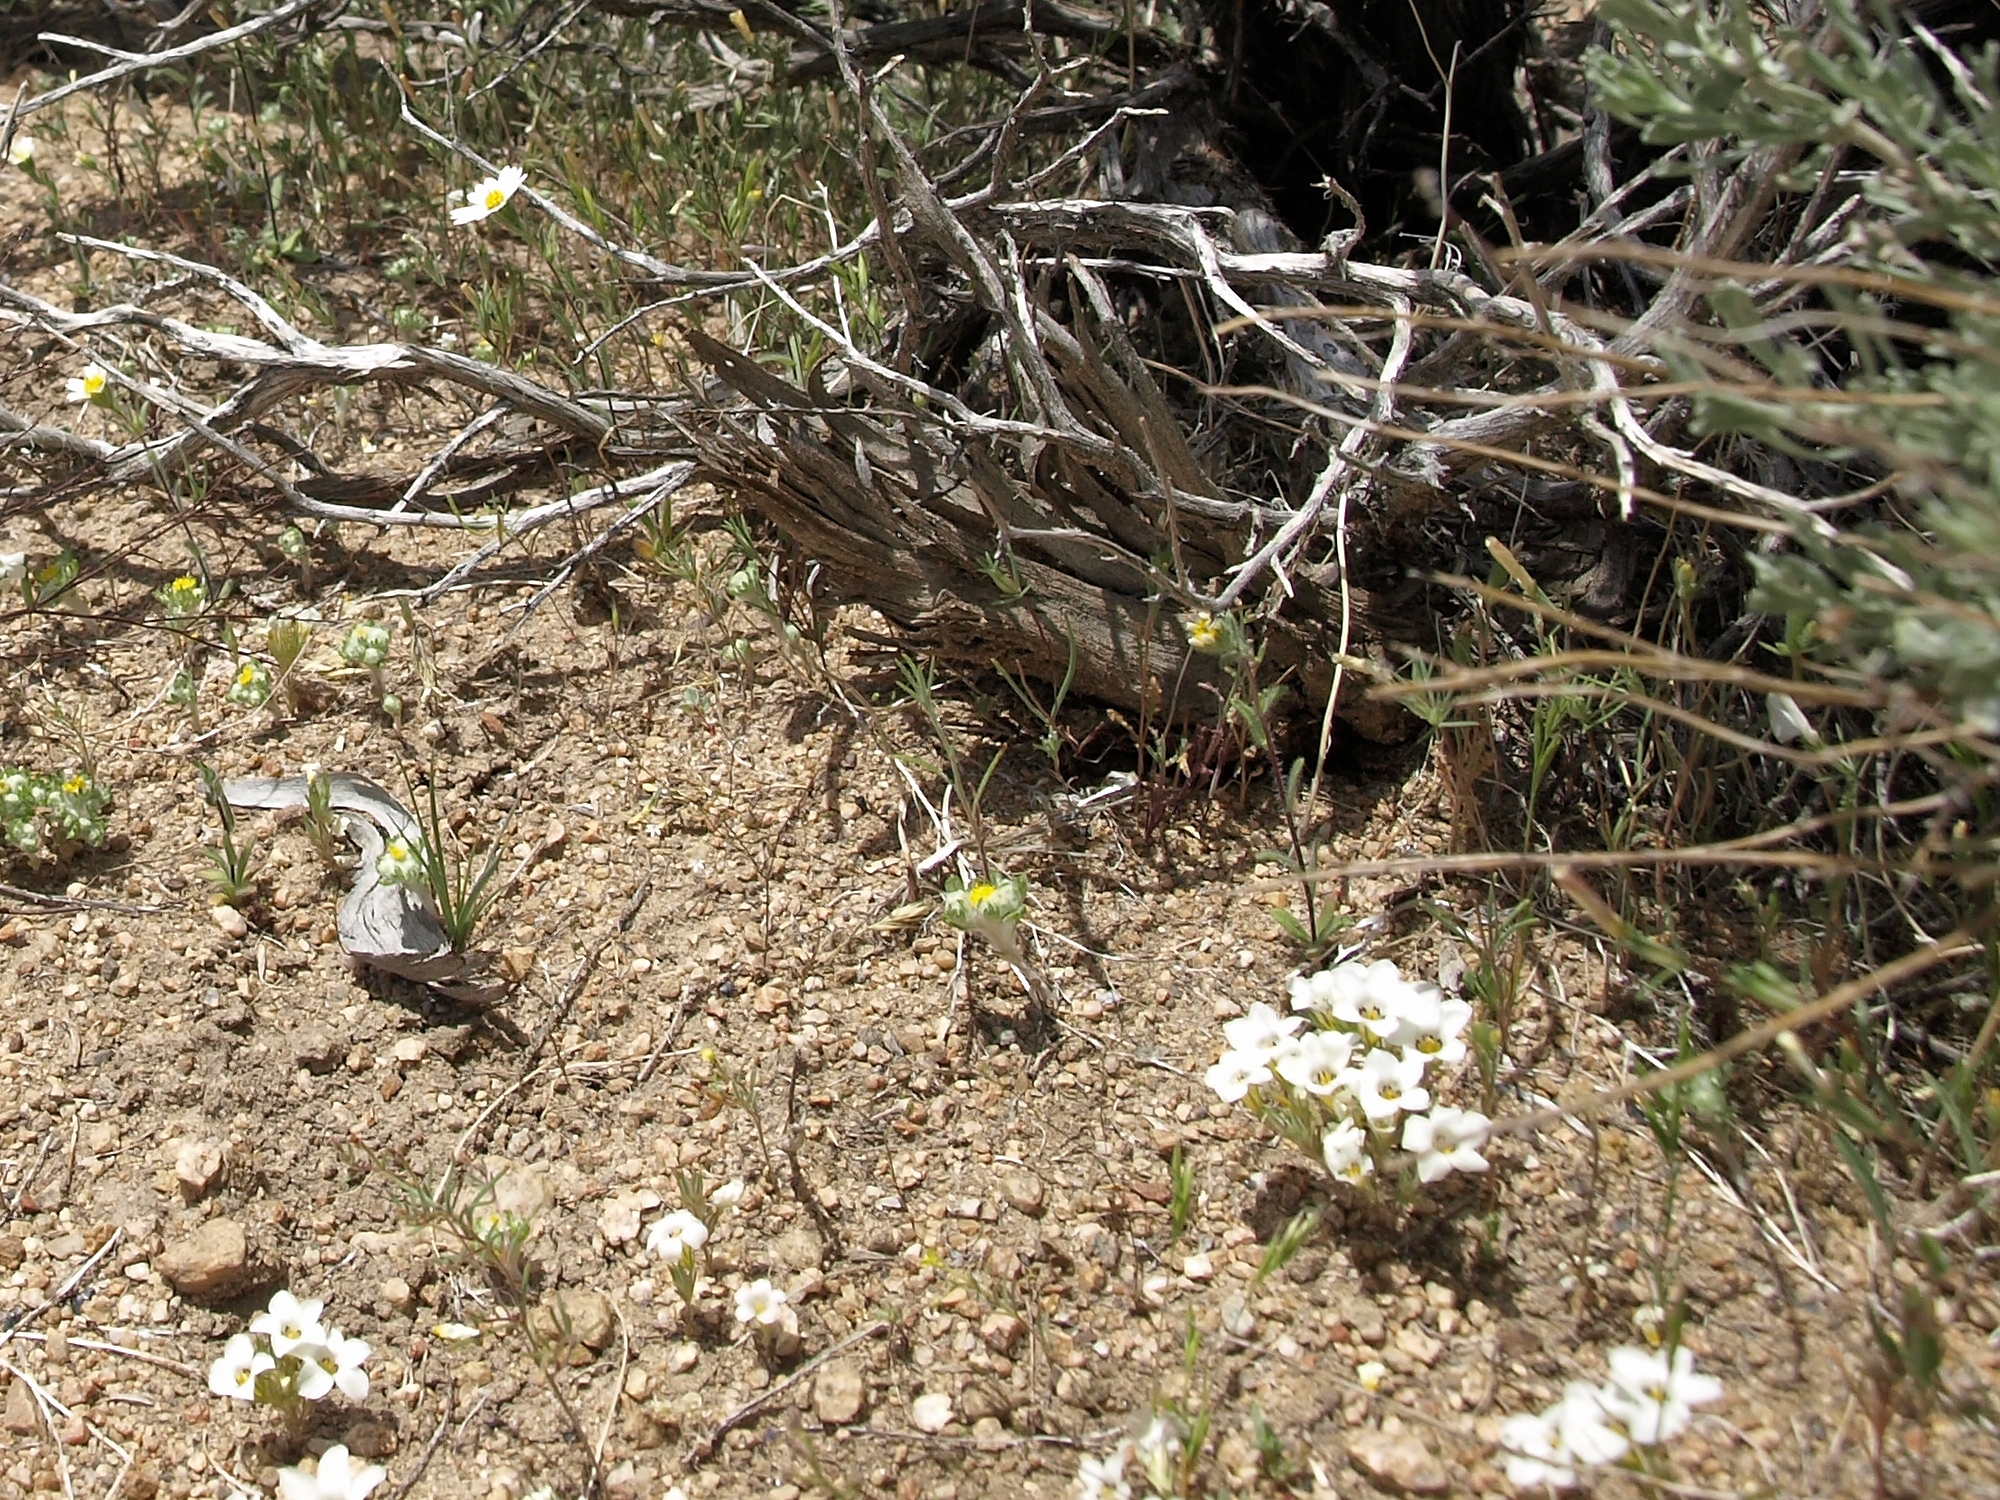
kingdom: Plantae
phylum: Tracheophyta
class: Magnoliopsida
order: Ericales
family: Polemoniaceae
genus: Linanthus
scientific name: Linanthus parryae
